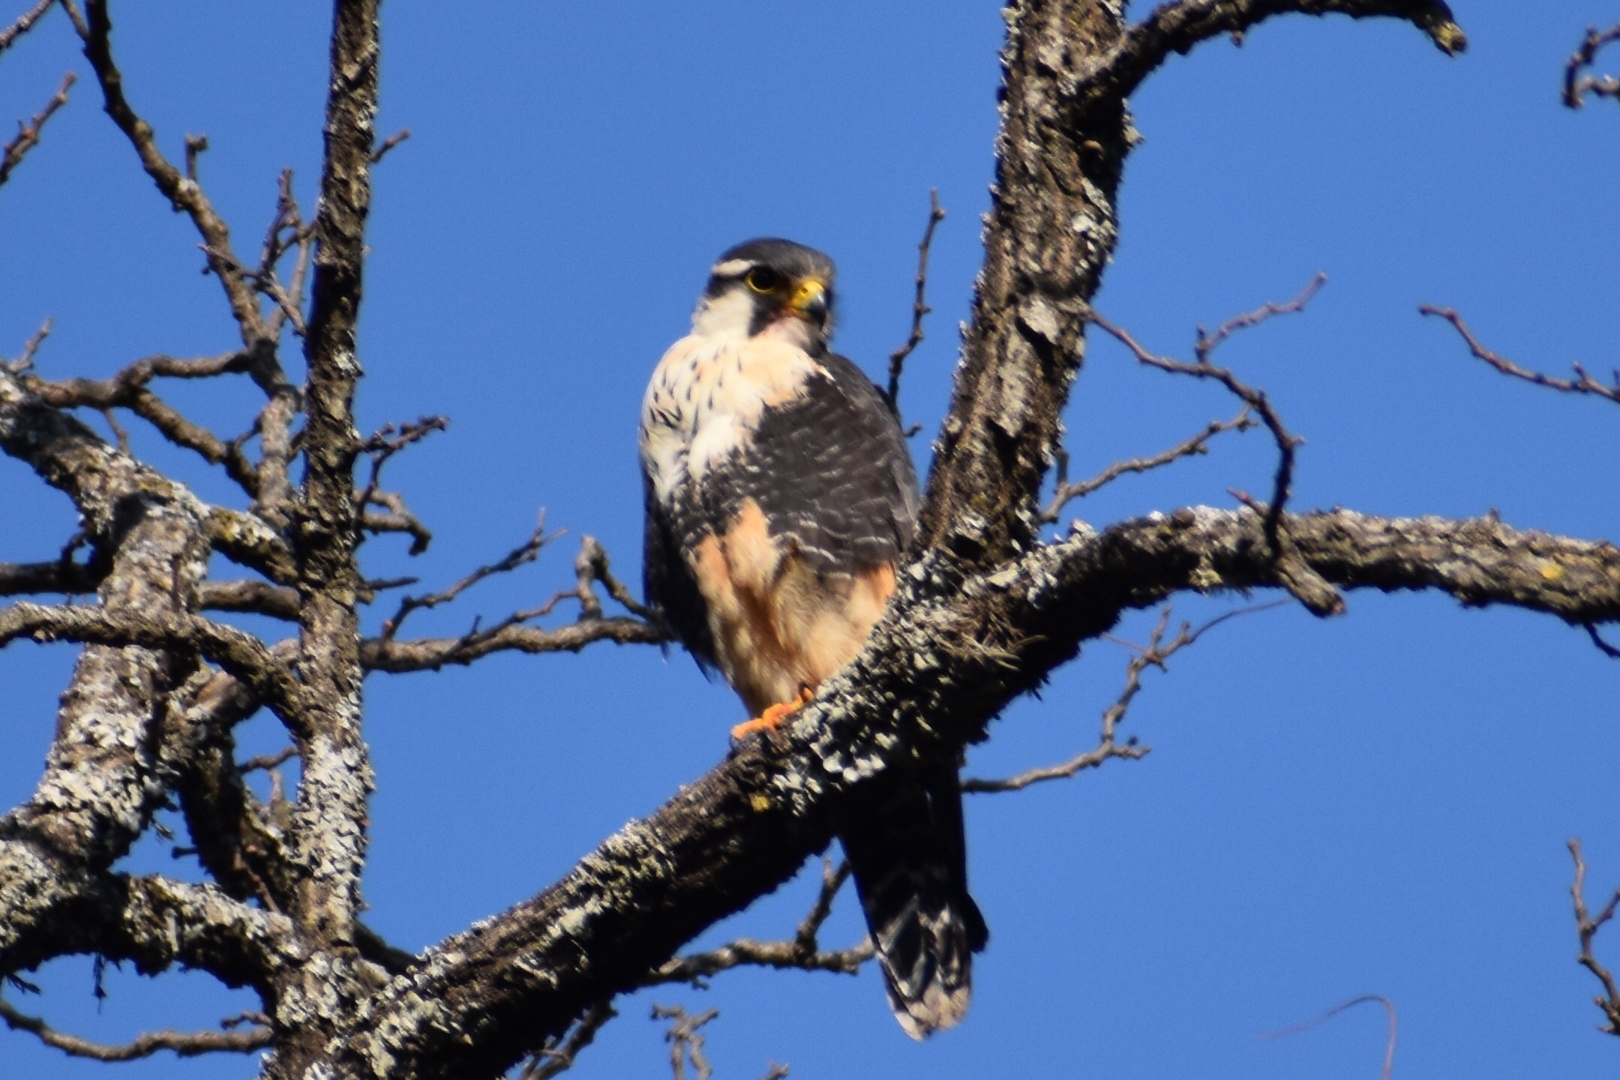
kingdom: Animalia
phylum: Chordata
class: Aves
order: Falconiformes
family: Falconidae
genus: Falco
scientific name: Falco femoralis
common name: Aplomado falcon
